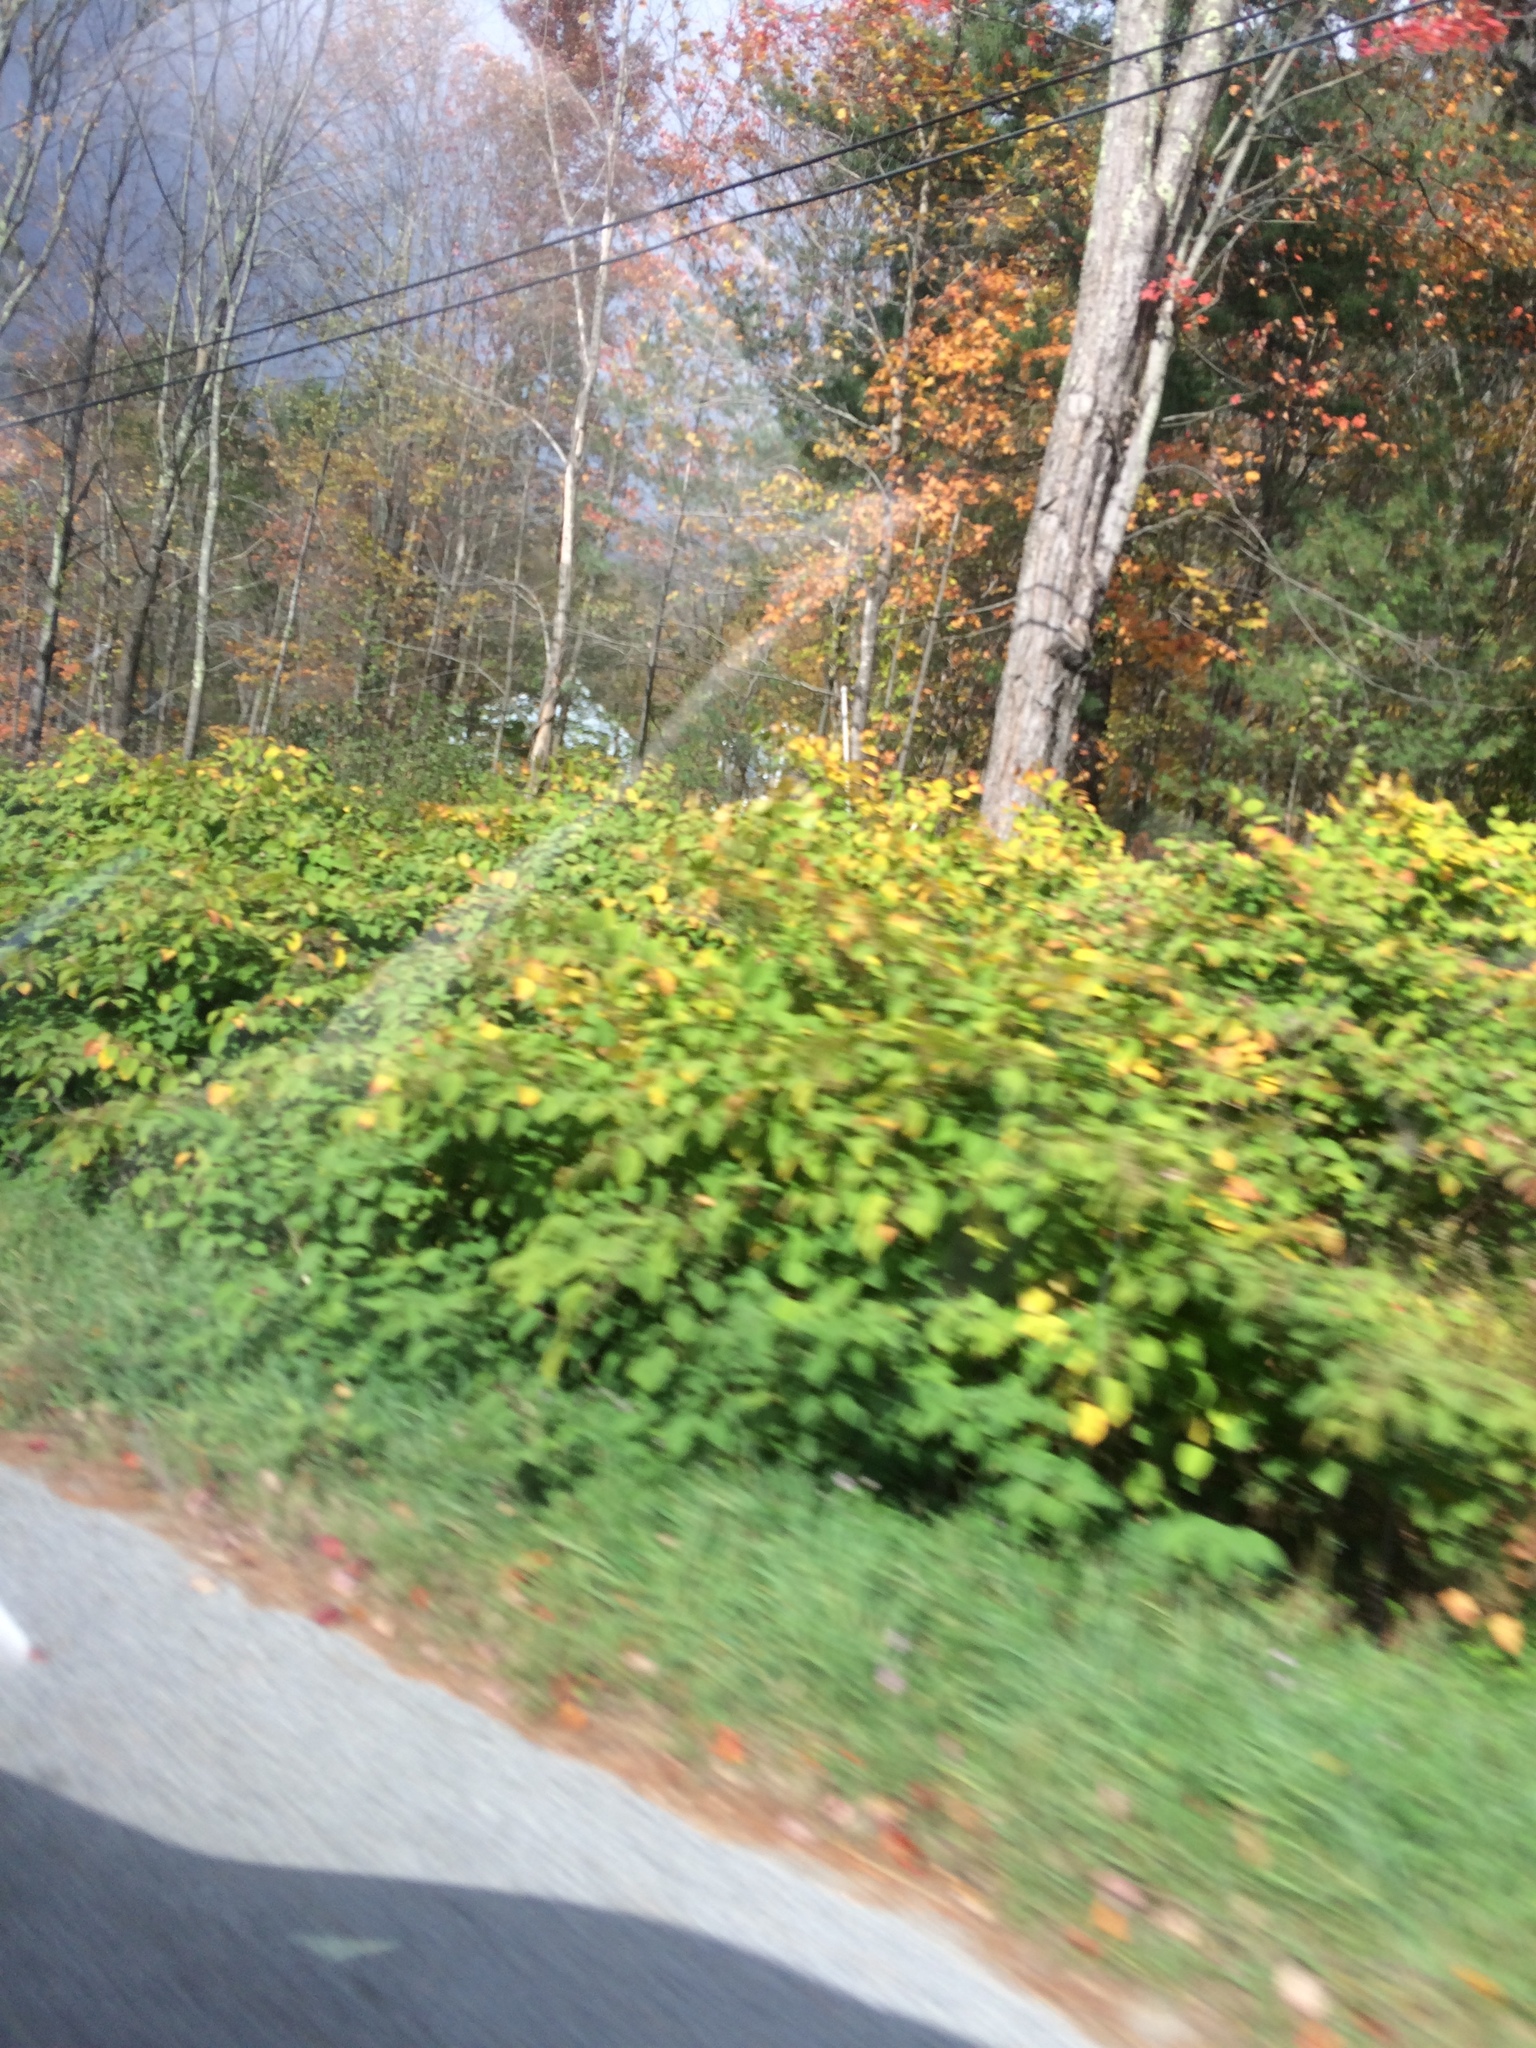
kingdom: Plantae
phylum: Tracheophyta
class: Magnoliopsida
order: Caryophyllales
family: Polygonaceae
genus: Reynoutria
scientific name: Reynoutria japonica
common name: Japanese knotweed
